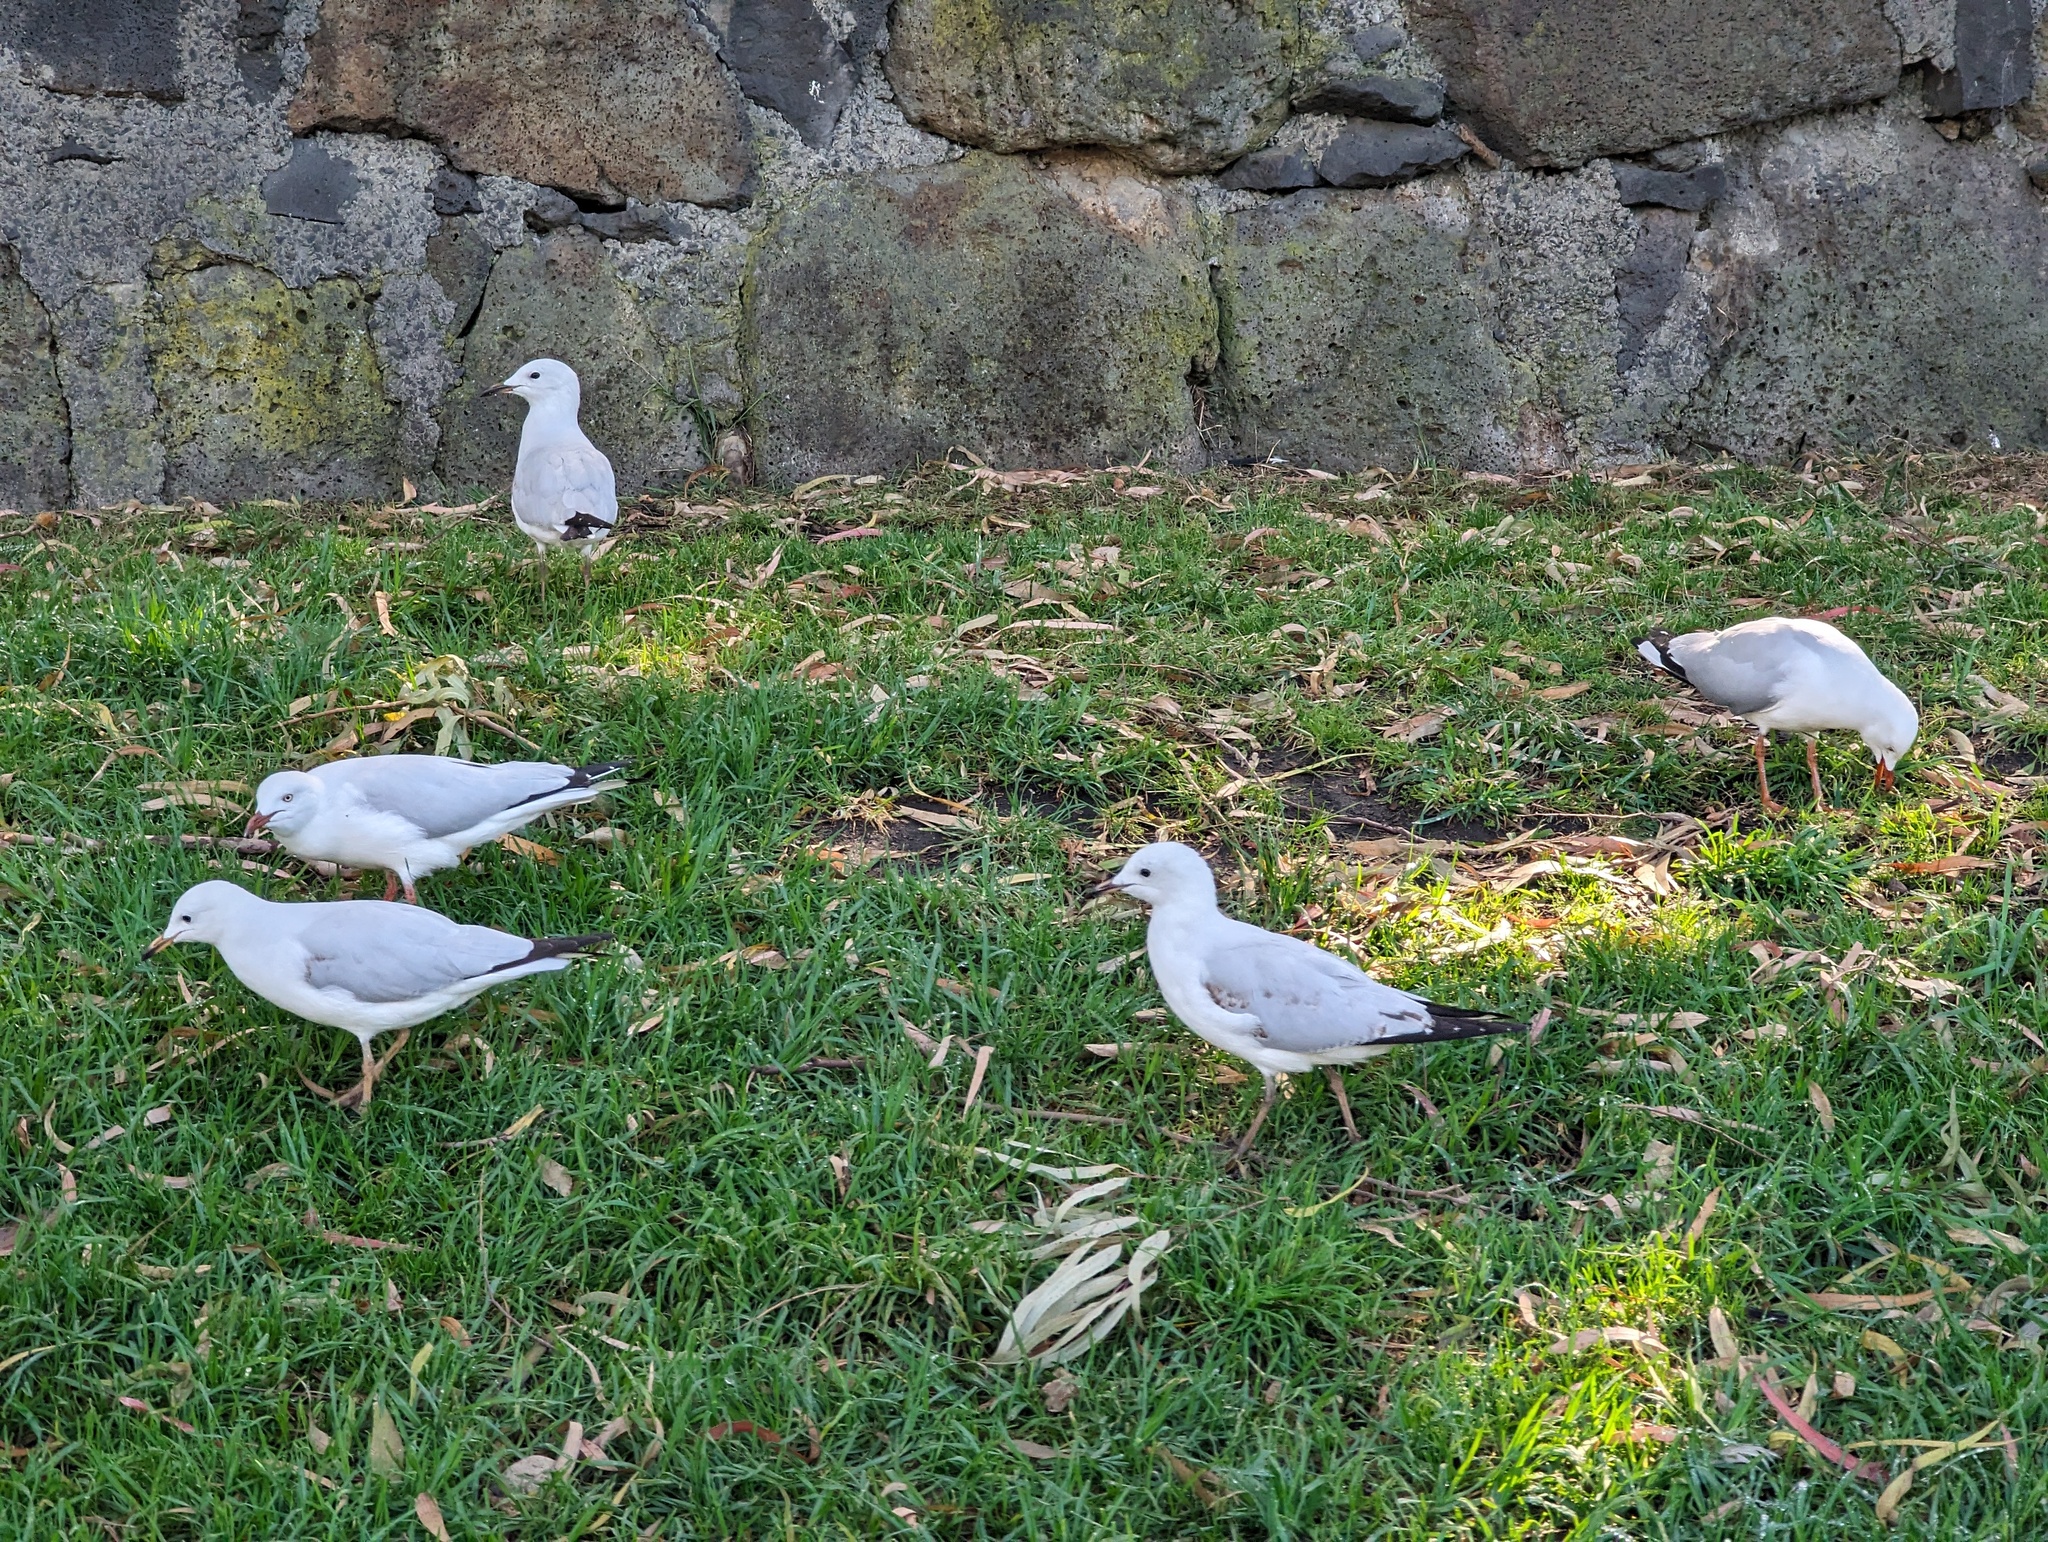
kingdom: Animalia
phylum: Chordata
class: Aves
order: Charadriiformes
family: Laridae
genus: Chroicocephalus
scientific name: Chroicocephalus novaehollandiae
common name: Silver gull
